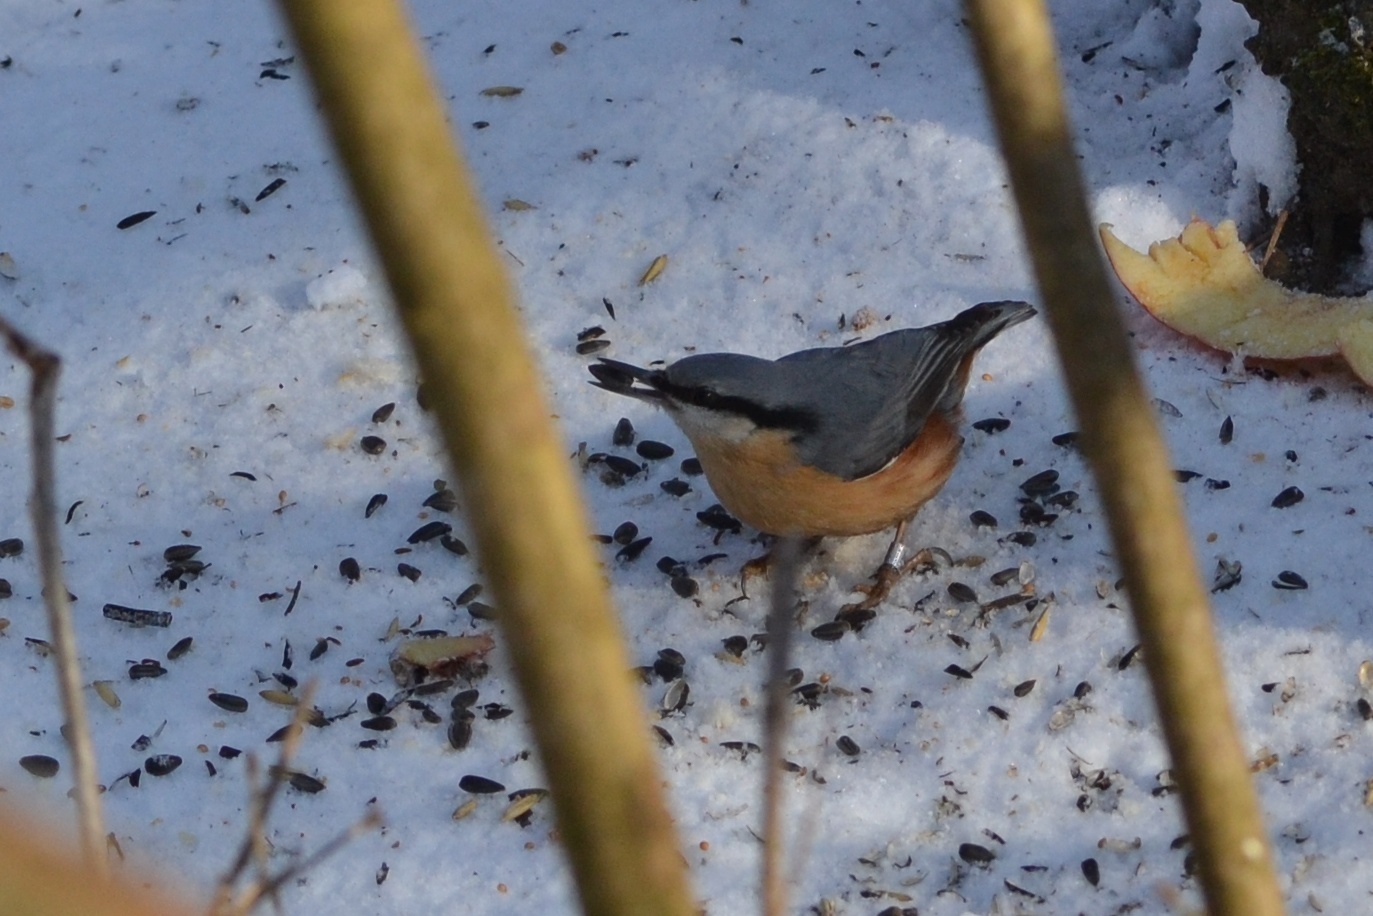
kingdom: Animalia
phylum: Chordata
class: Aves
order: Passeriformes
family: Sittidae
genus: Sitta
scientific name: Sitta europaea
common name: Eurasian nuthatch
